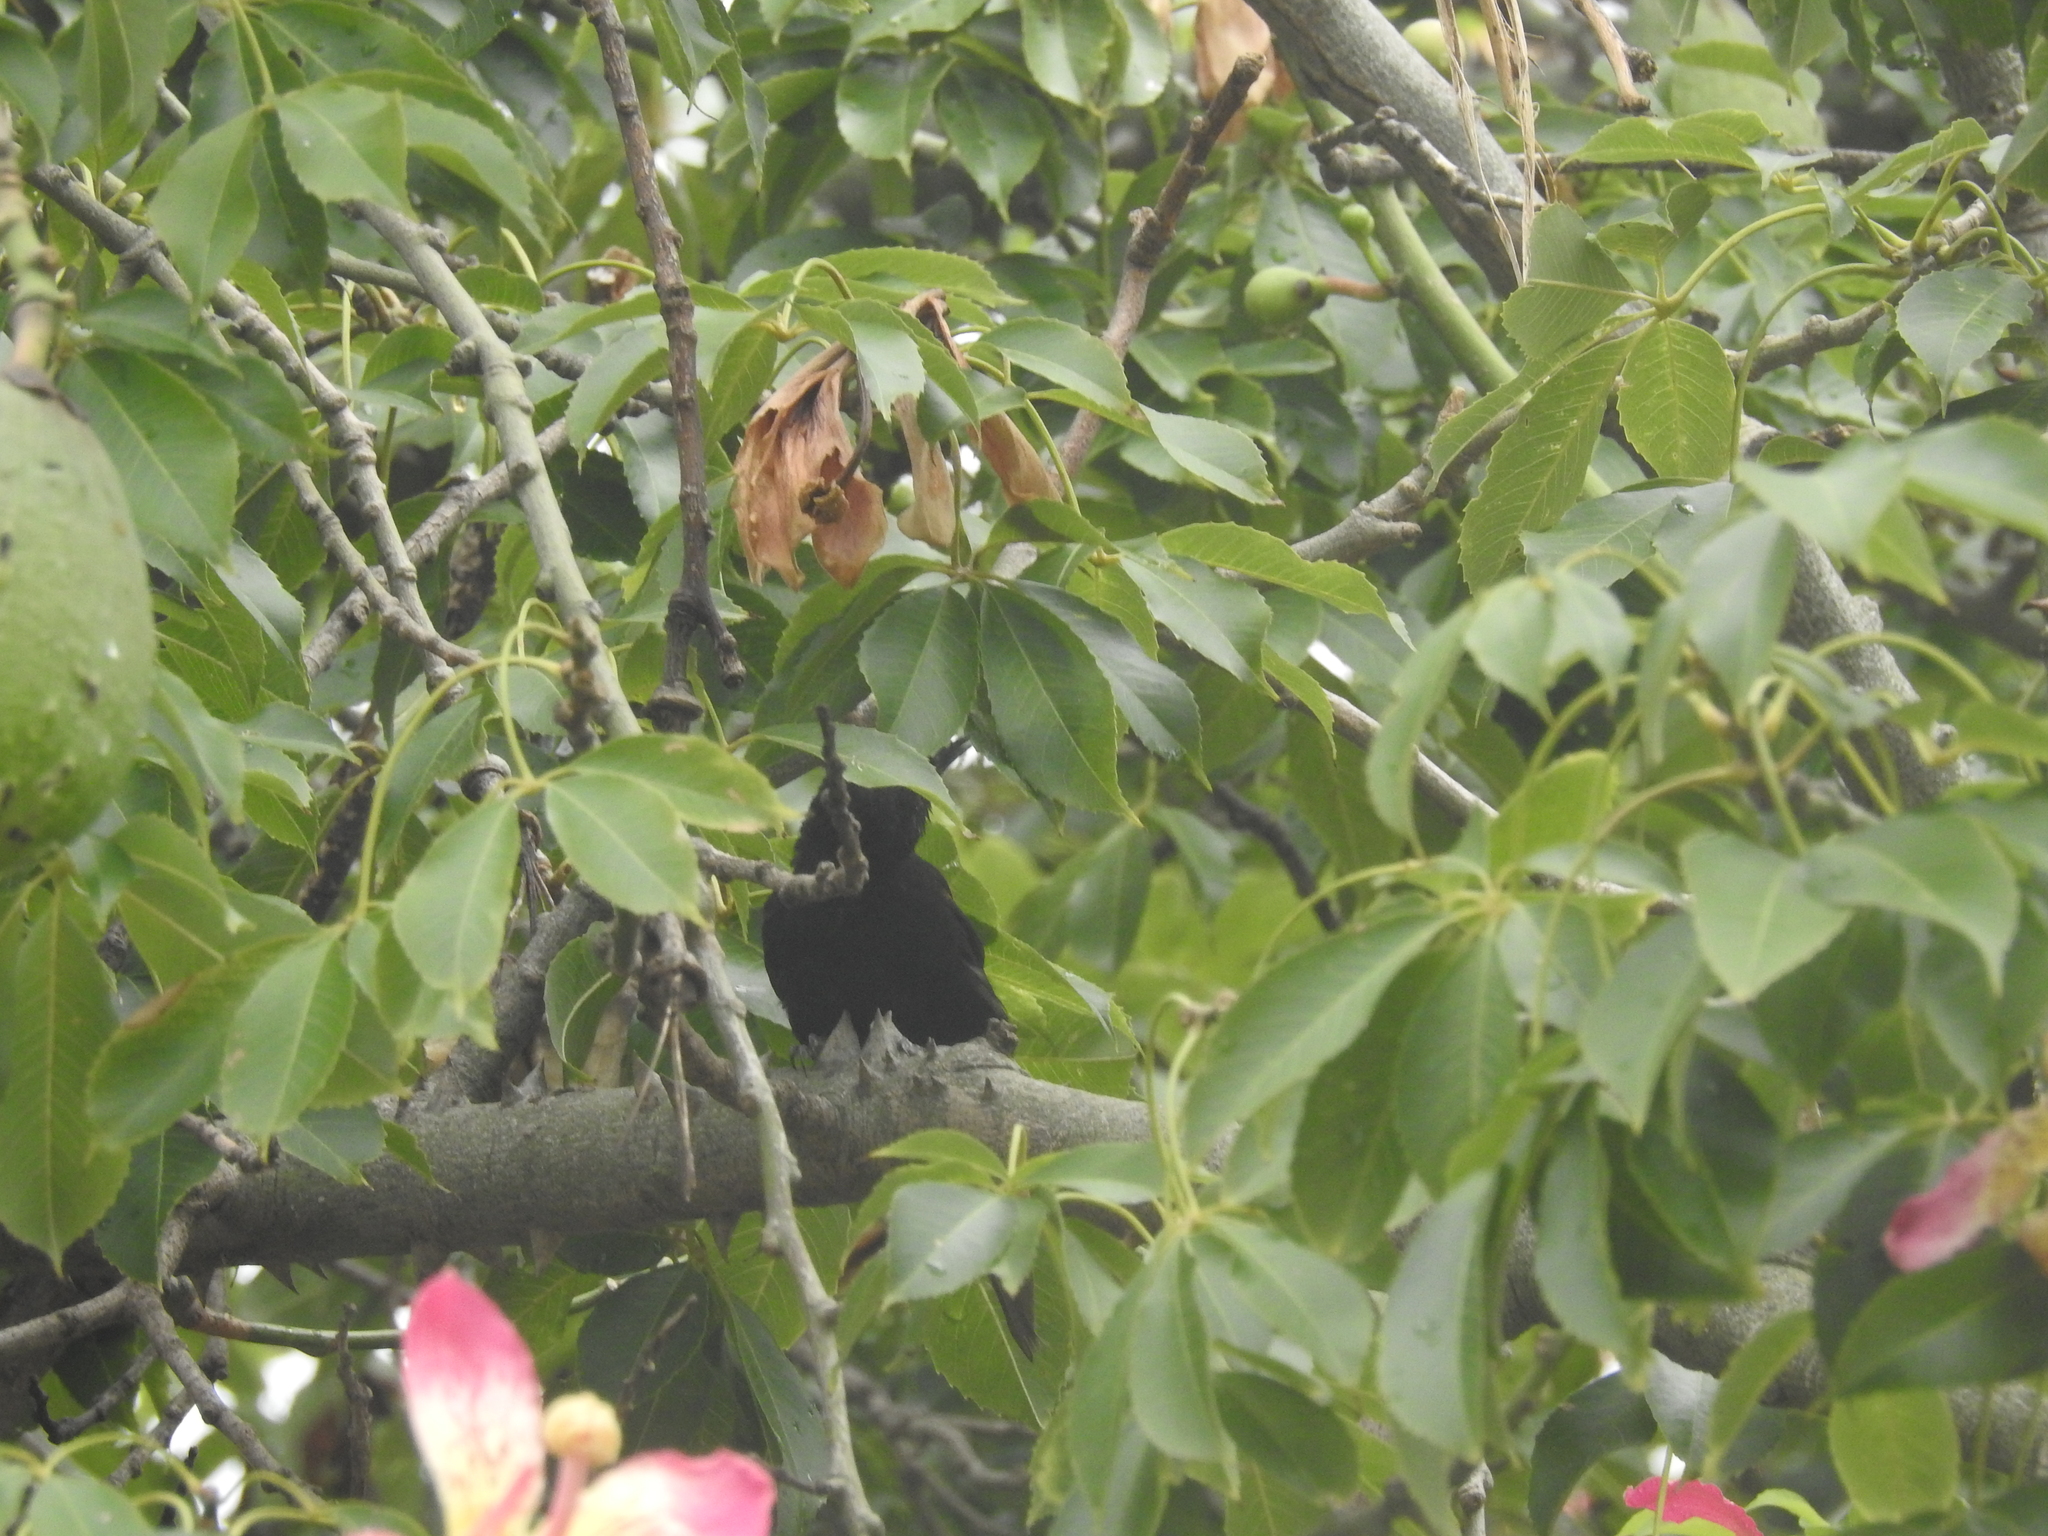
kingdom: Animalia
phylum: Chordata
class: Aves
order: Passeriformes
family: Icteridae
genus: Icterus
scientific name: Icterus cayanensis
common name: Epaulet oriole
